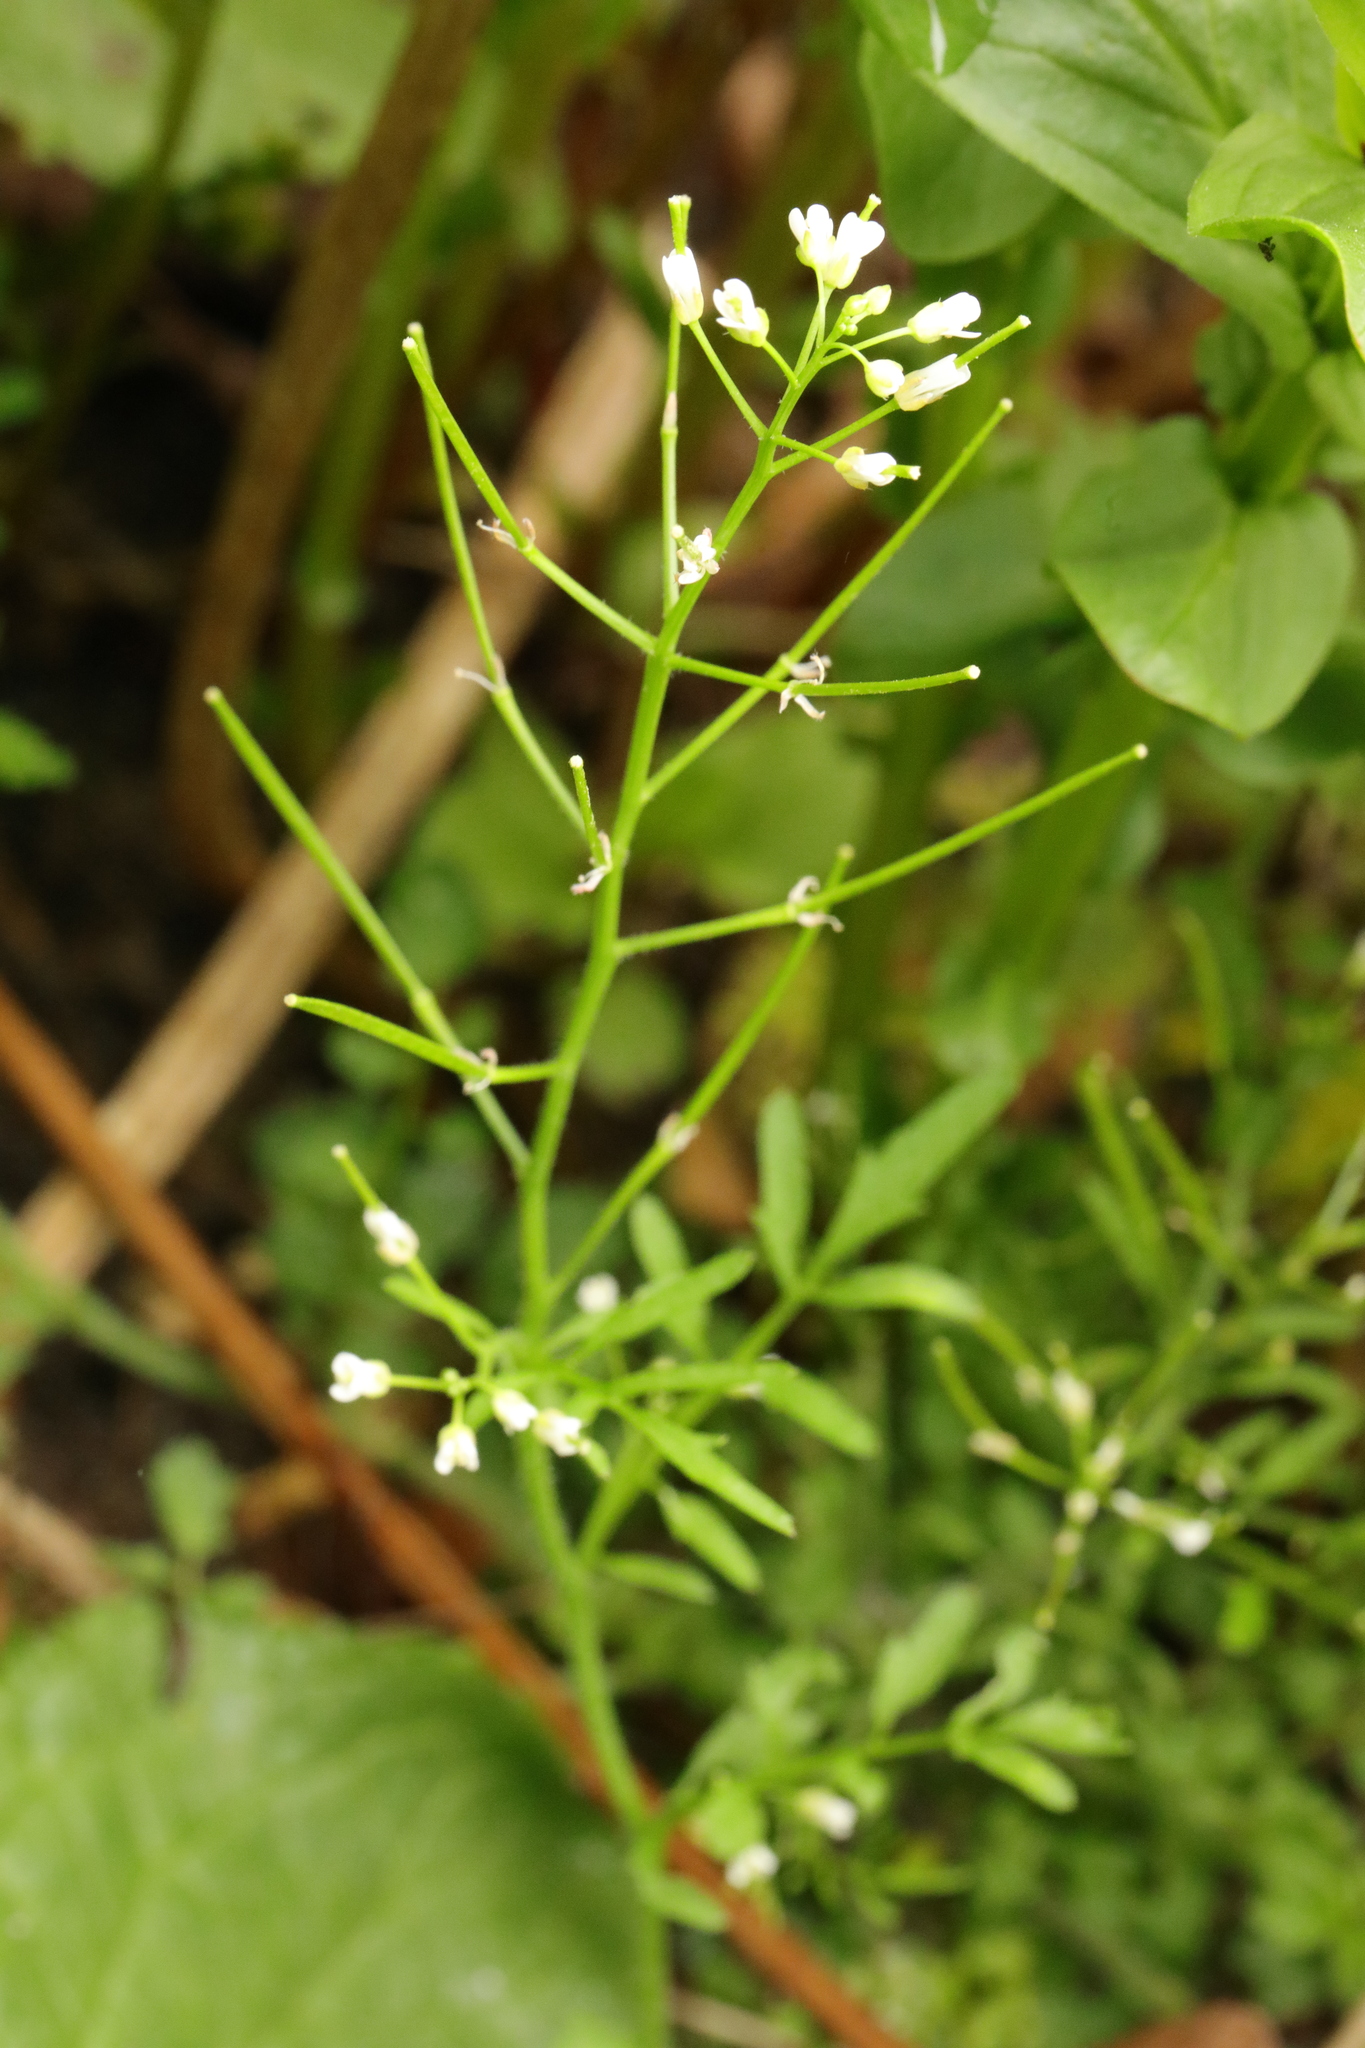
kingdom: Plantae
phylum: Tracheophyta
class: Magnoliopsida
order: Brassicales
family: Brassicaceae
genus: Cardamine
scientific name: Cardamine flexuosa
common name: Woodland bittercress
